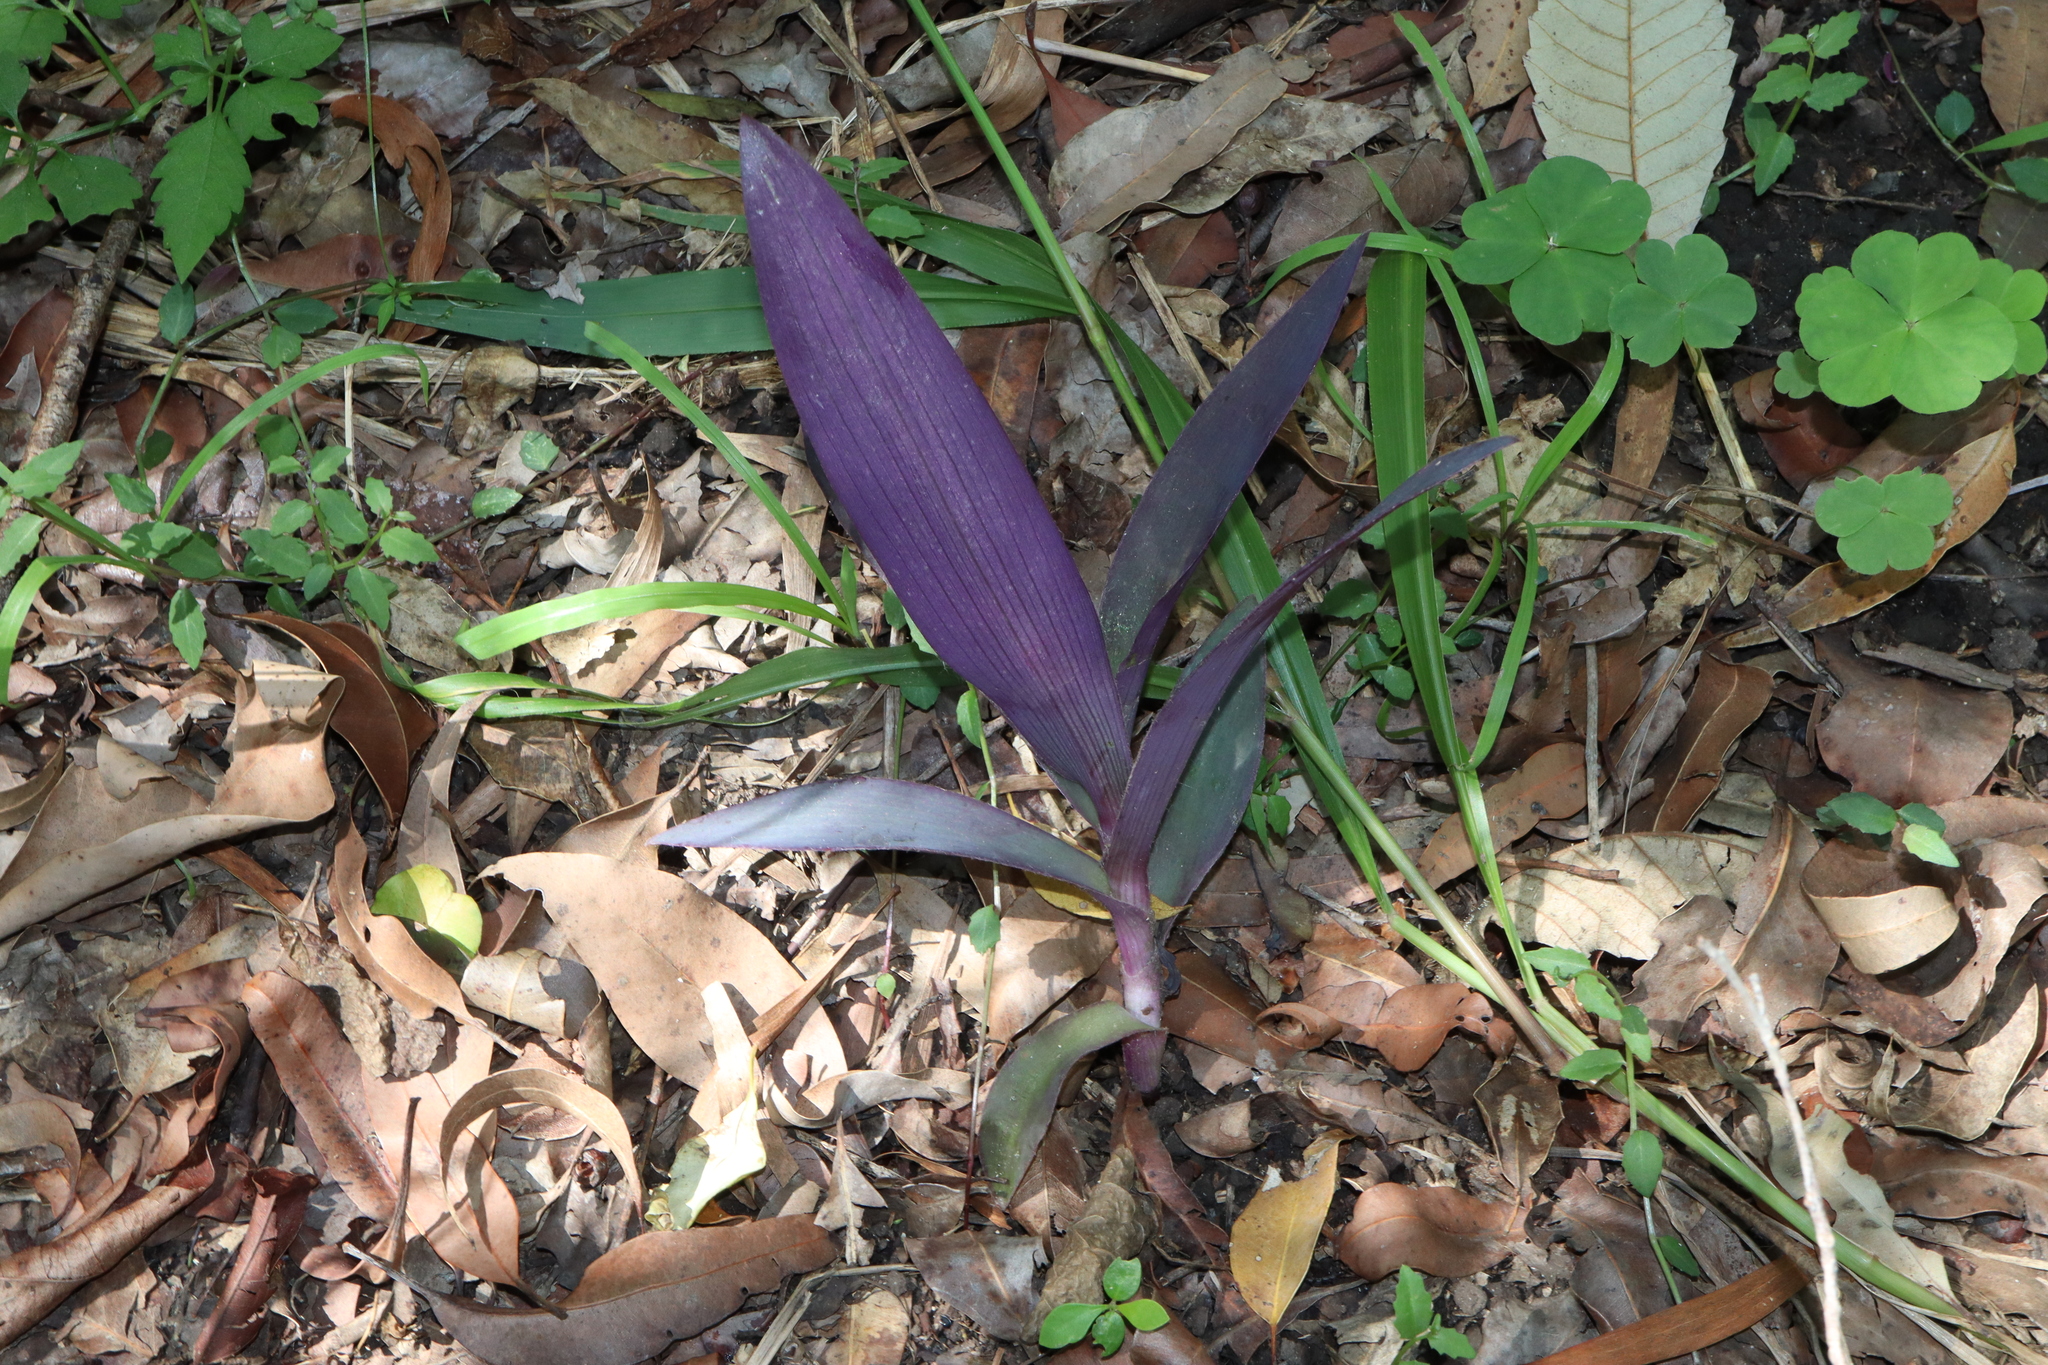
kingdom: Plantae
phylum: Tracheophyta
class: Liliopsida
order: Commelinales
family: Commelinaceae
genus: Tradescantia
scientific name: Tradescantia pallida
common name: Purpleheart
